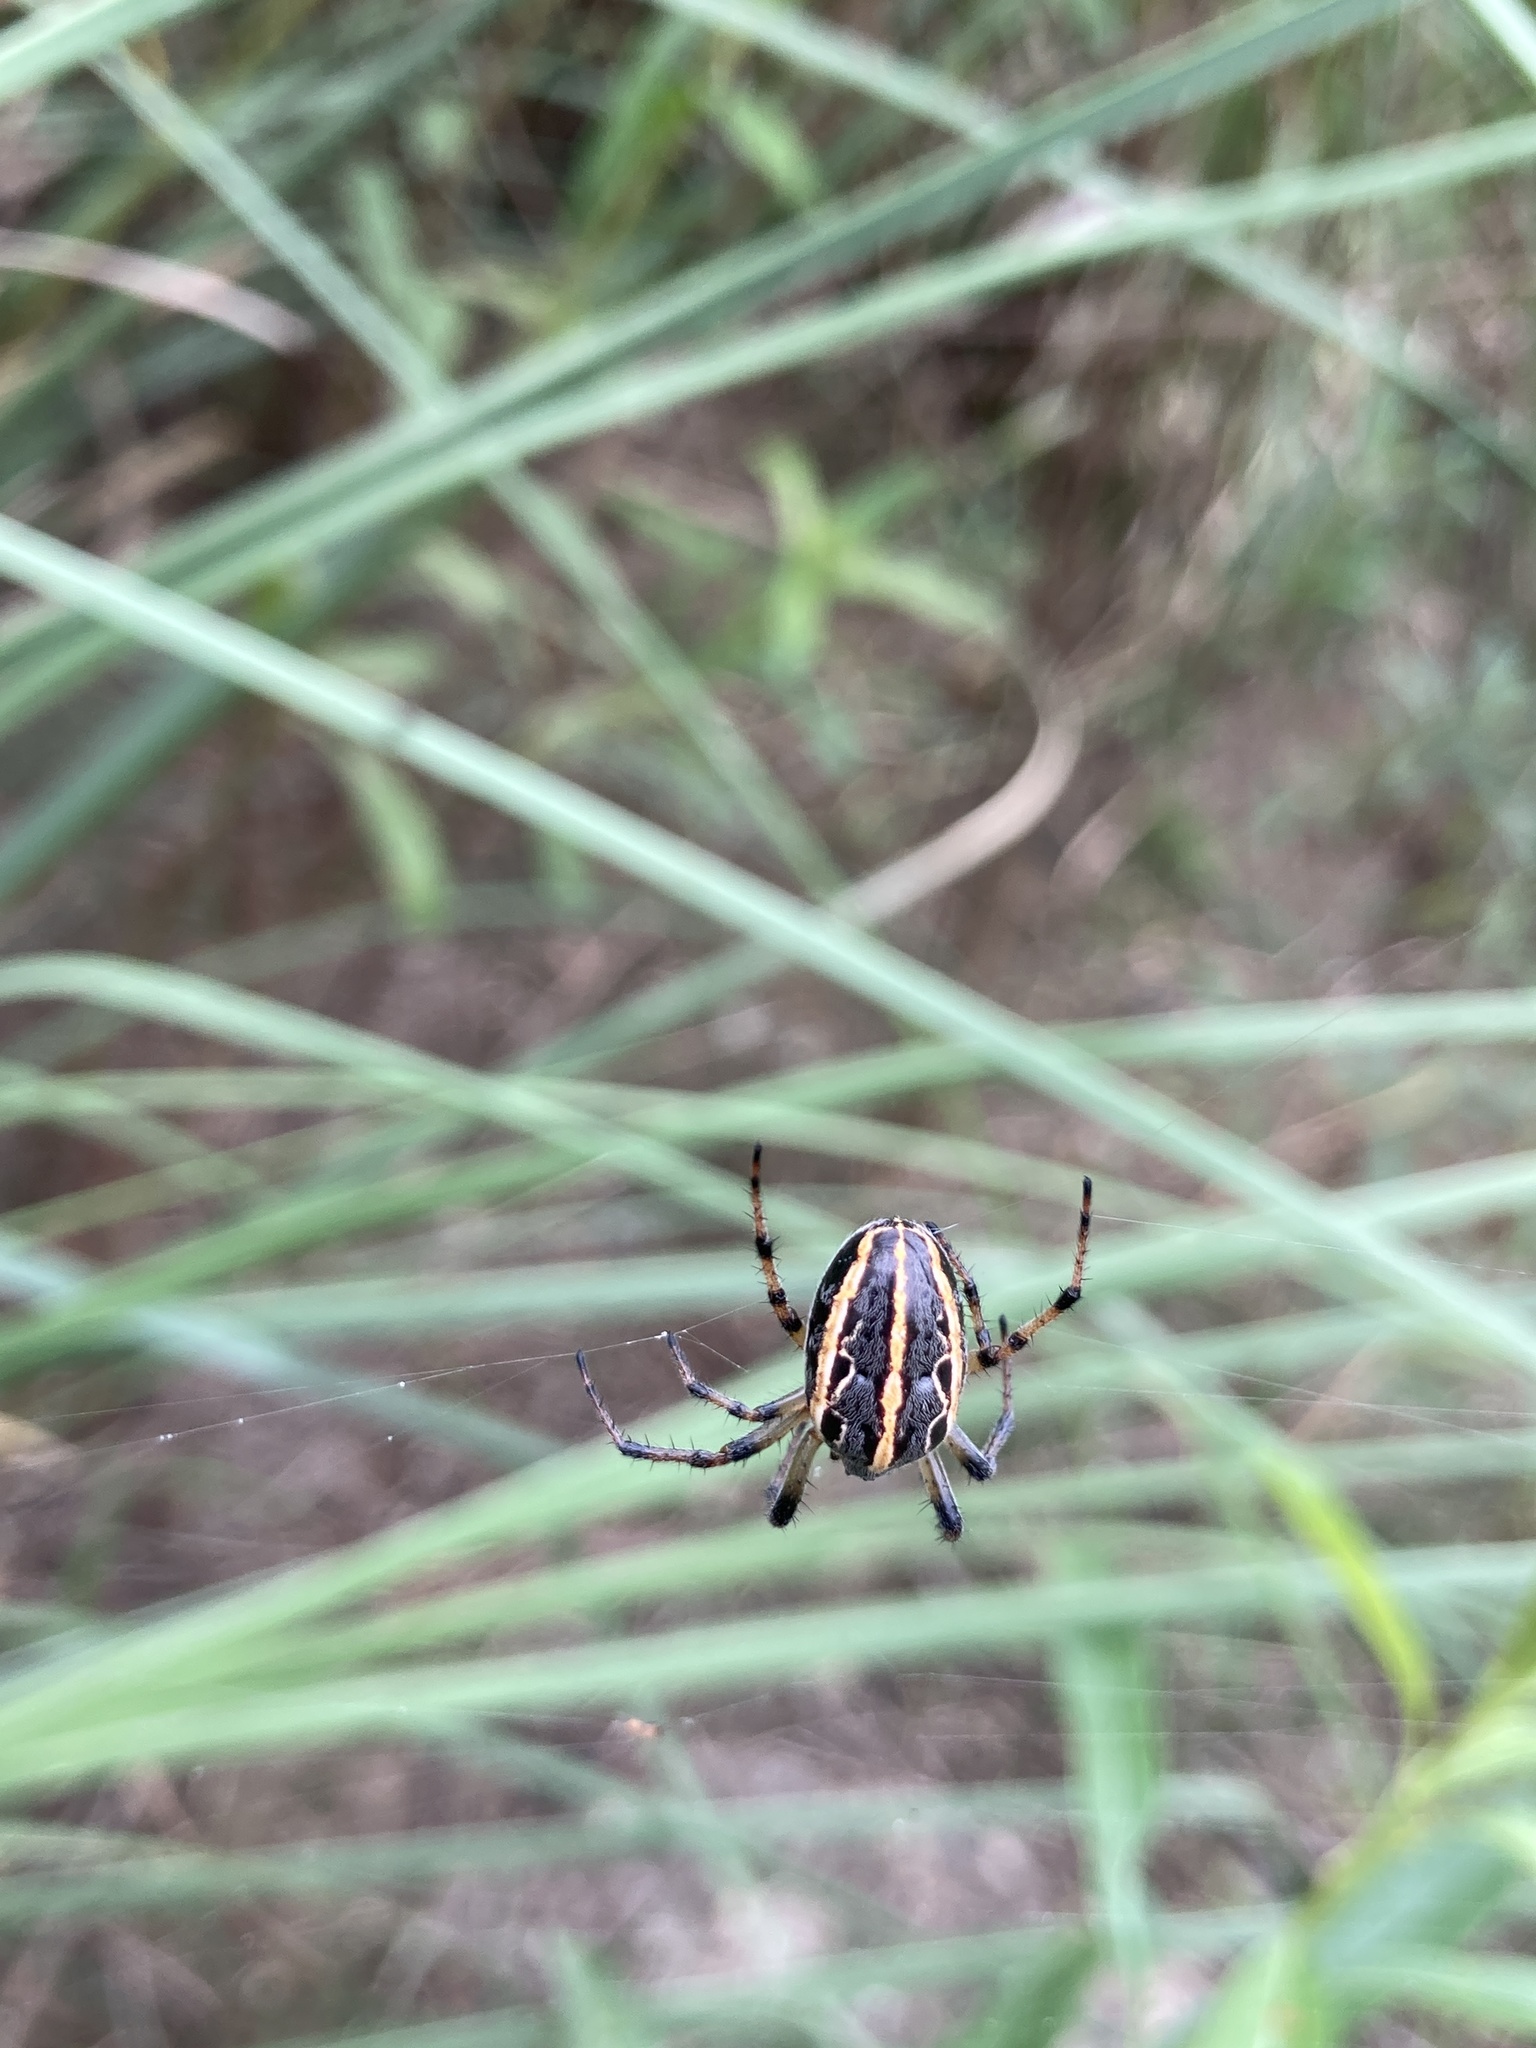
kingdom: Animalia
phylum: Arthropoda
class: Arachnida
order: Araneae
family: Araneidae
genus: Alpaida
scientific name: Alpaida veniliae
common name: Orb weavers
